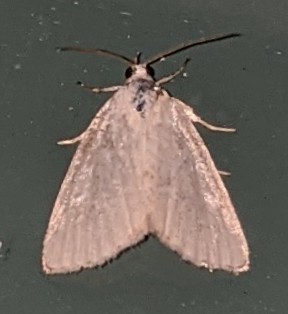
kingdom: Animalia
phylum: Arthropoda
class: Insecta
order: Lepidoptera
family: Noctuidae
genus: Protodeltote
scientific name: Protodeltote albidula
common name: Pale glyph
